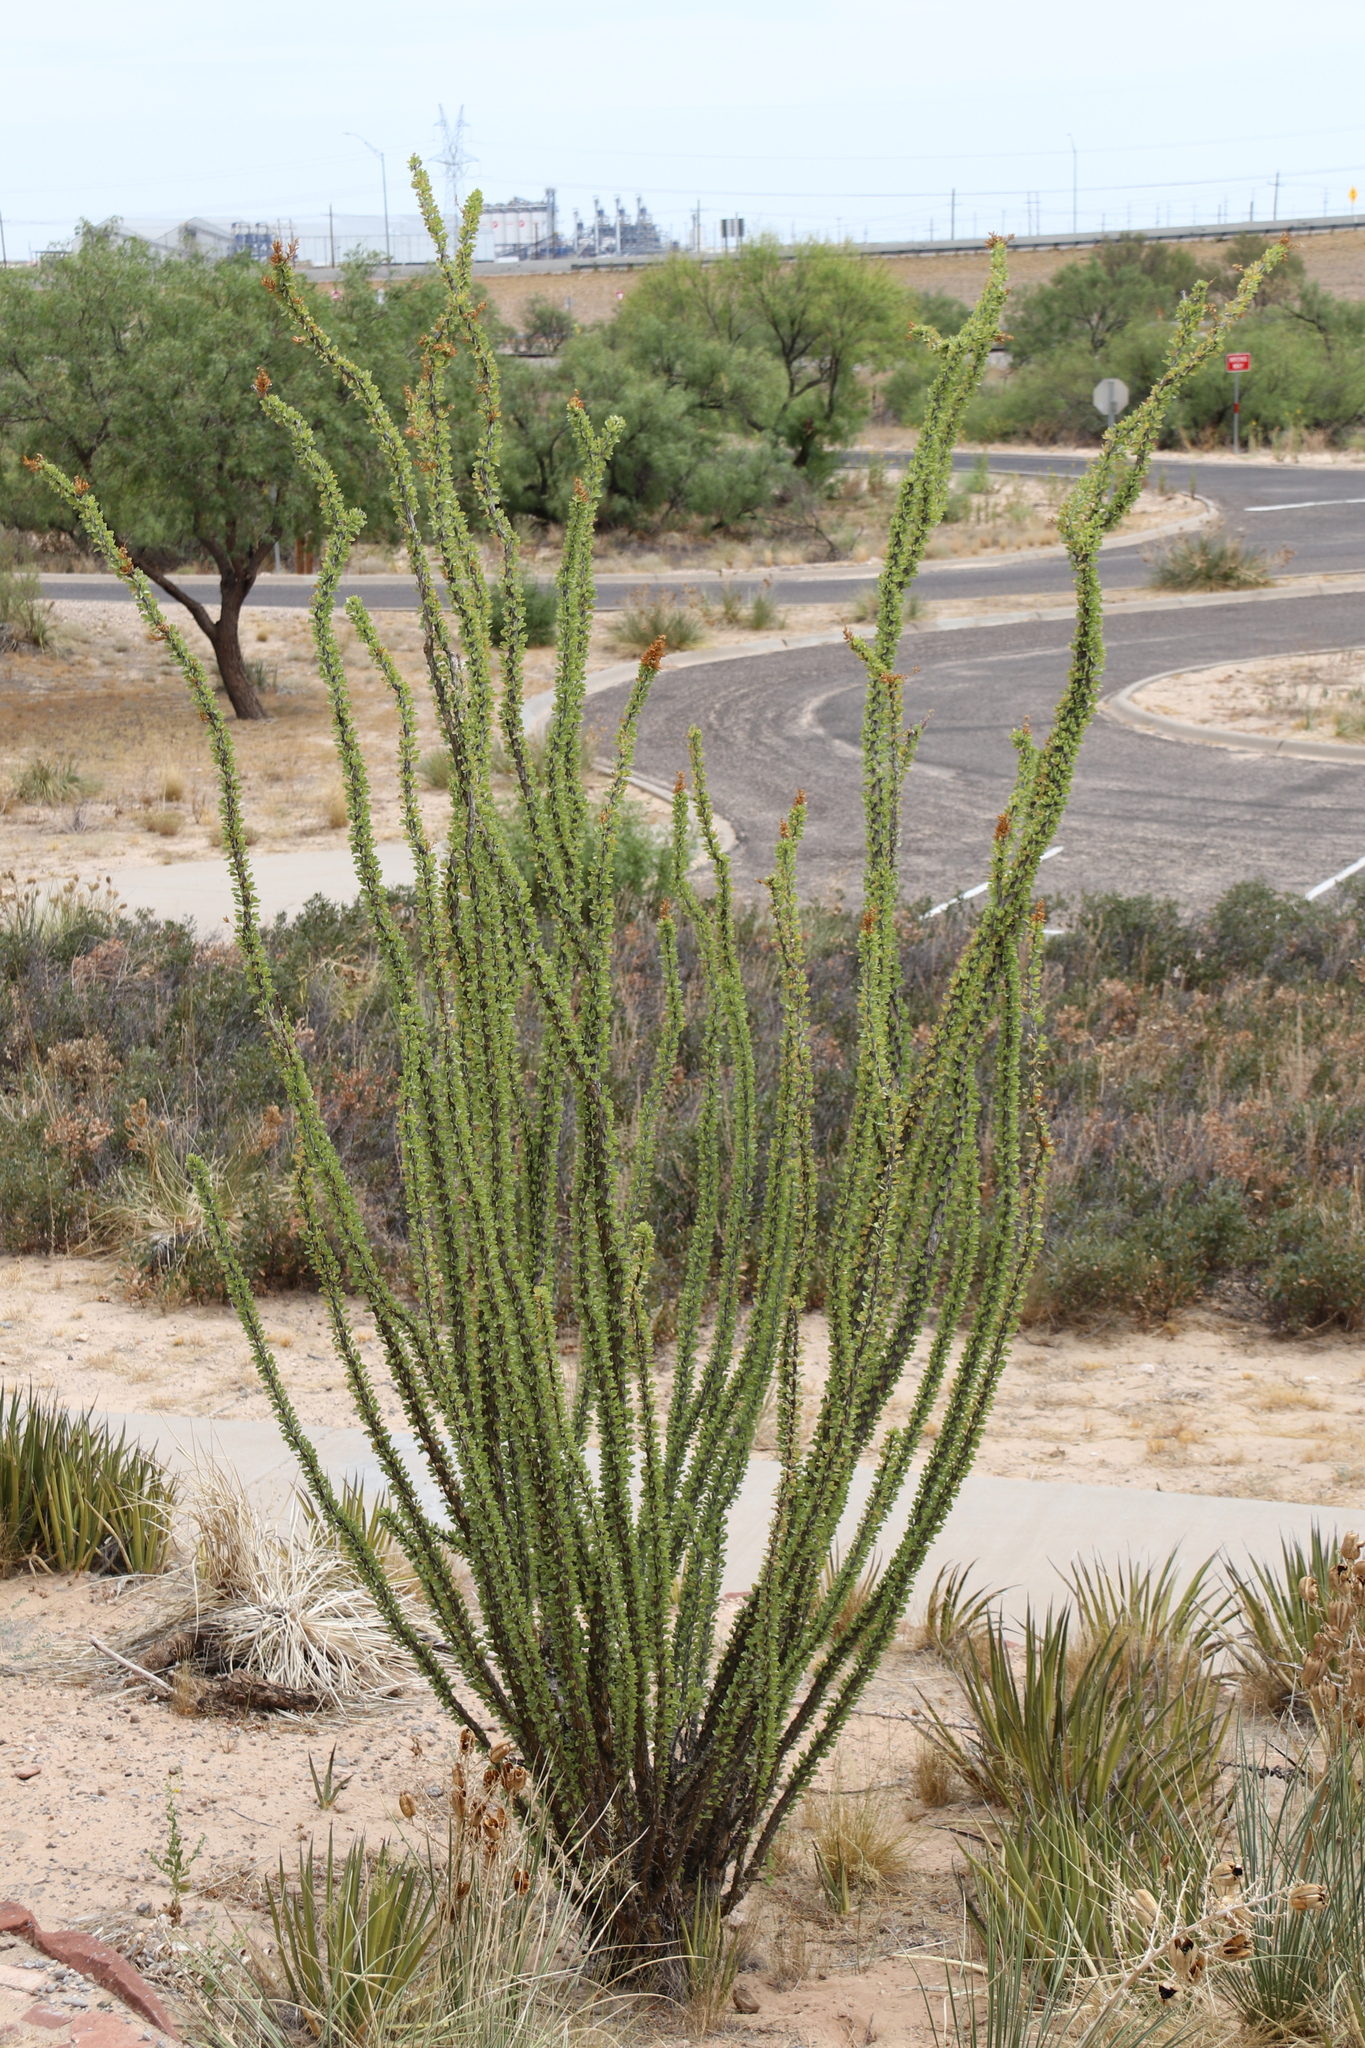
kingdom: Plantae
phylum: Tracheophyta
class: Magnoliopsida
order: Ericales
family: Fouquieriaceae
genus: Fouquieria
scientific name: Fouquieria splendens
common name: Vine-cactus
